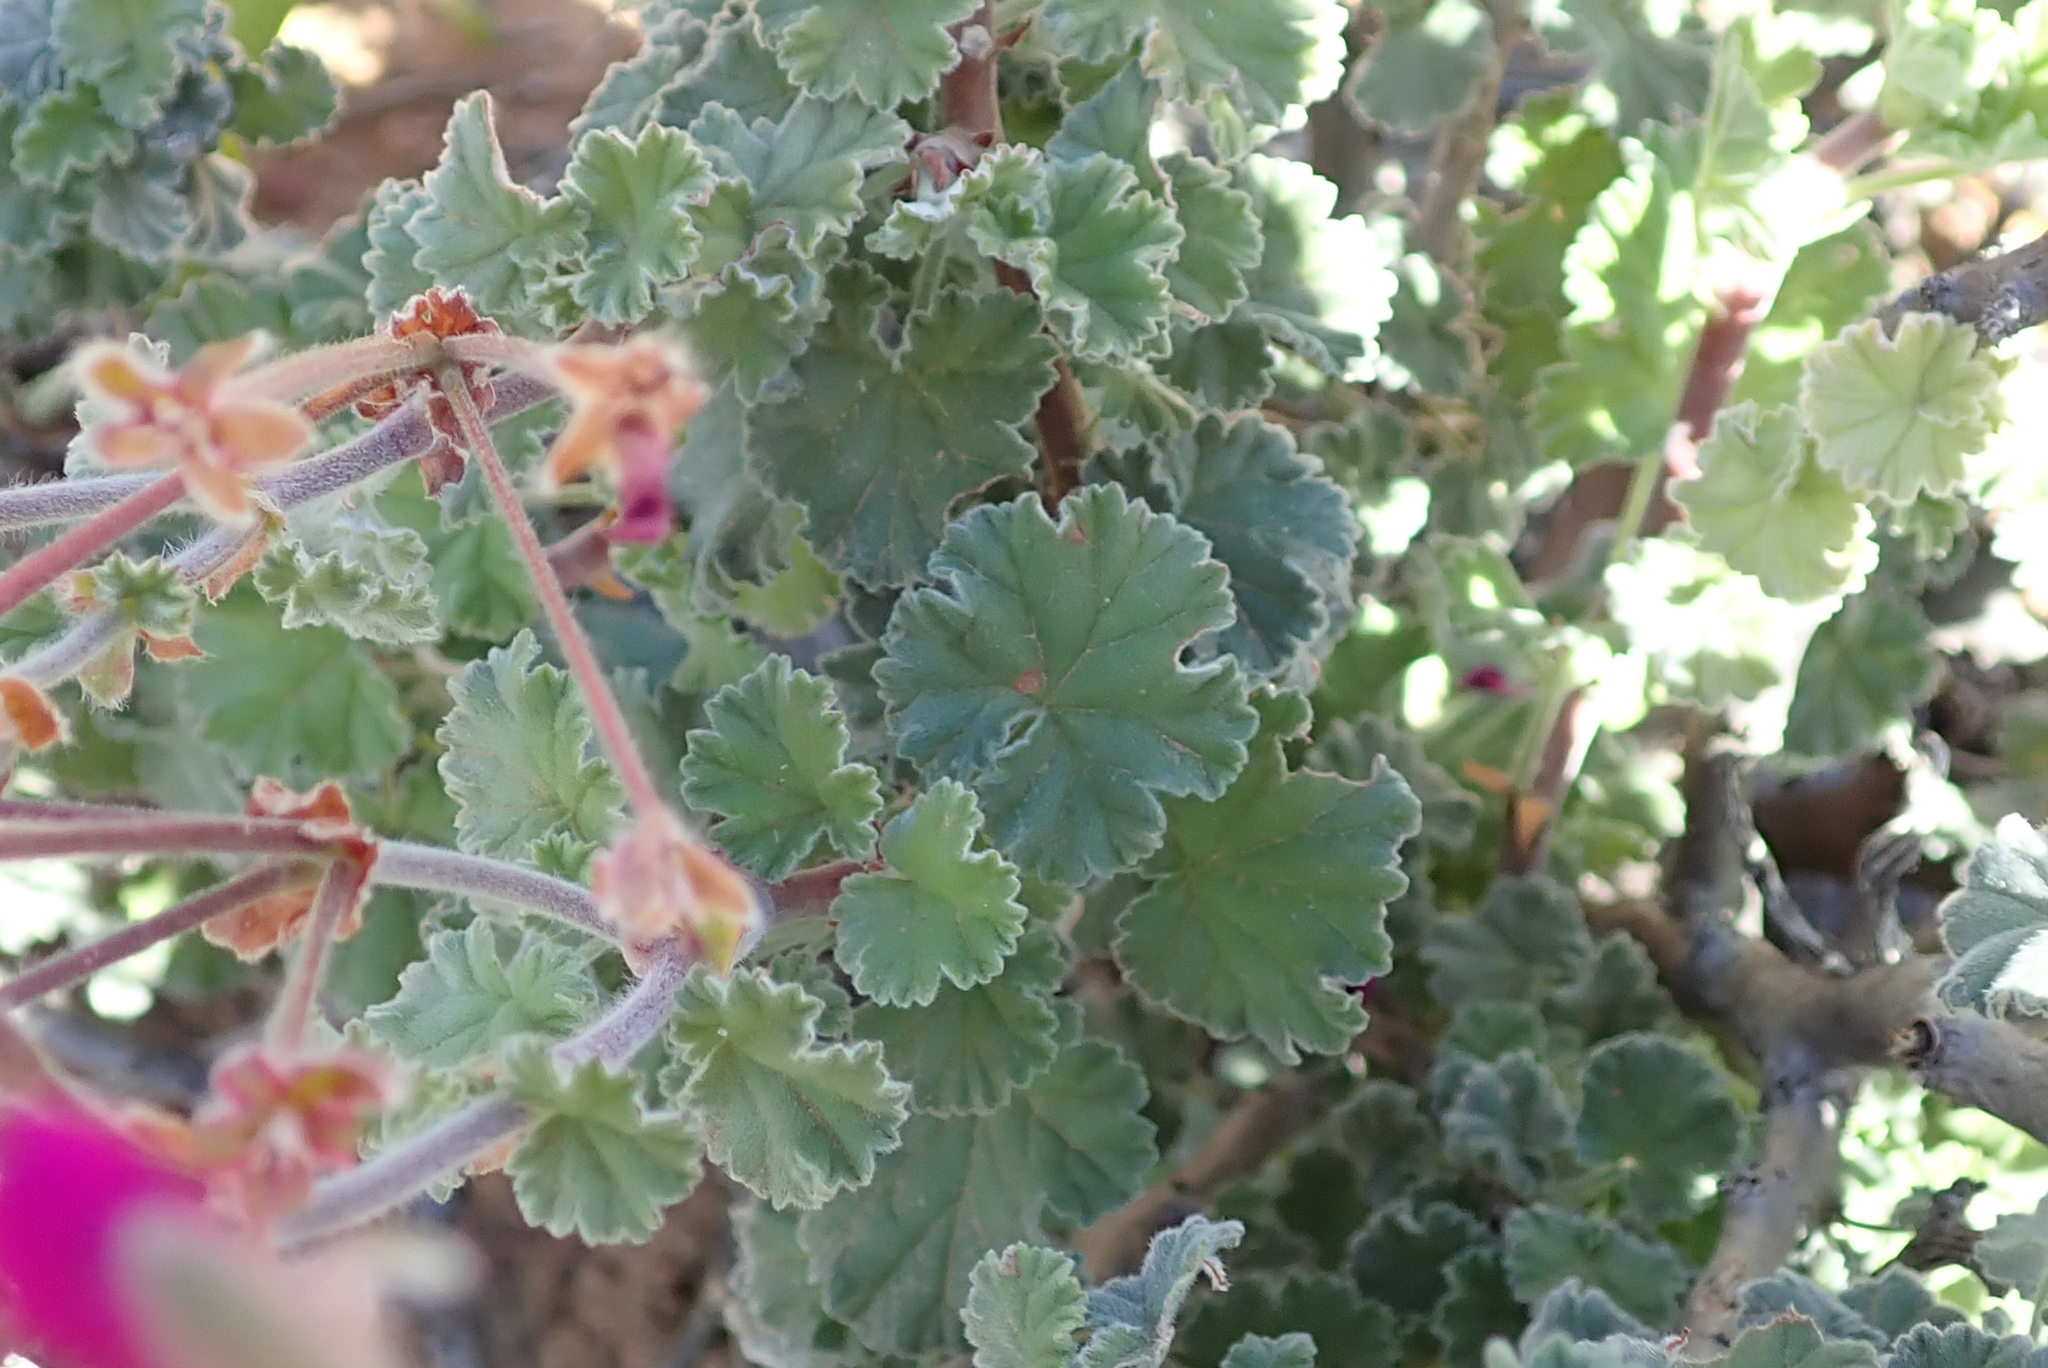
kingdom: Plantae
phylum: Tracheophyta
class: Magnoliopsida
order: Geraniales
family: Geraniaceae
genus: Pelargonium
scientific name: Pelargonium magenteum
